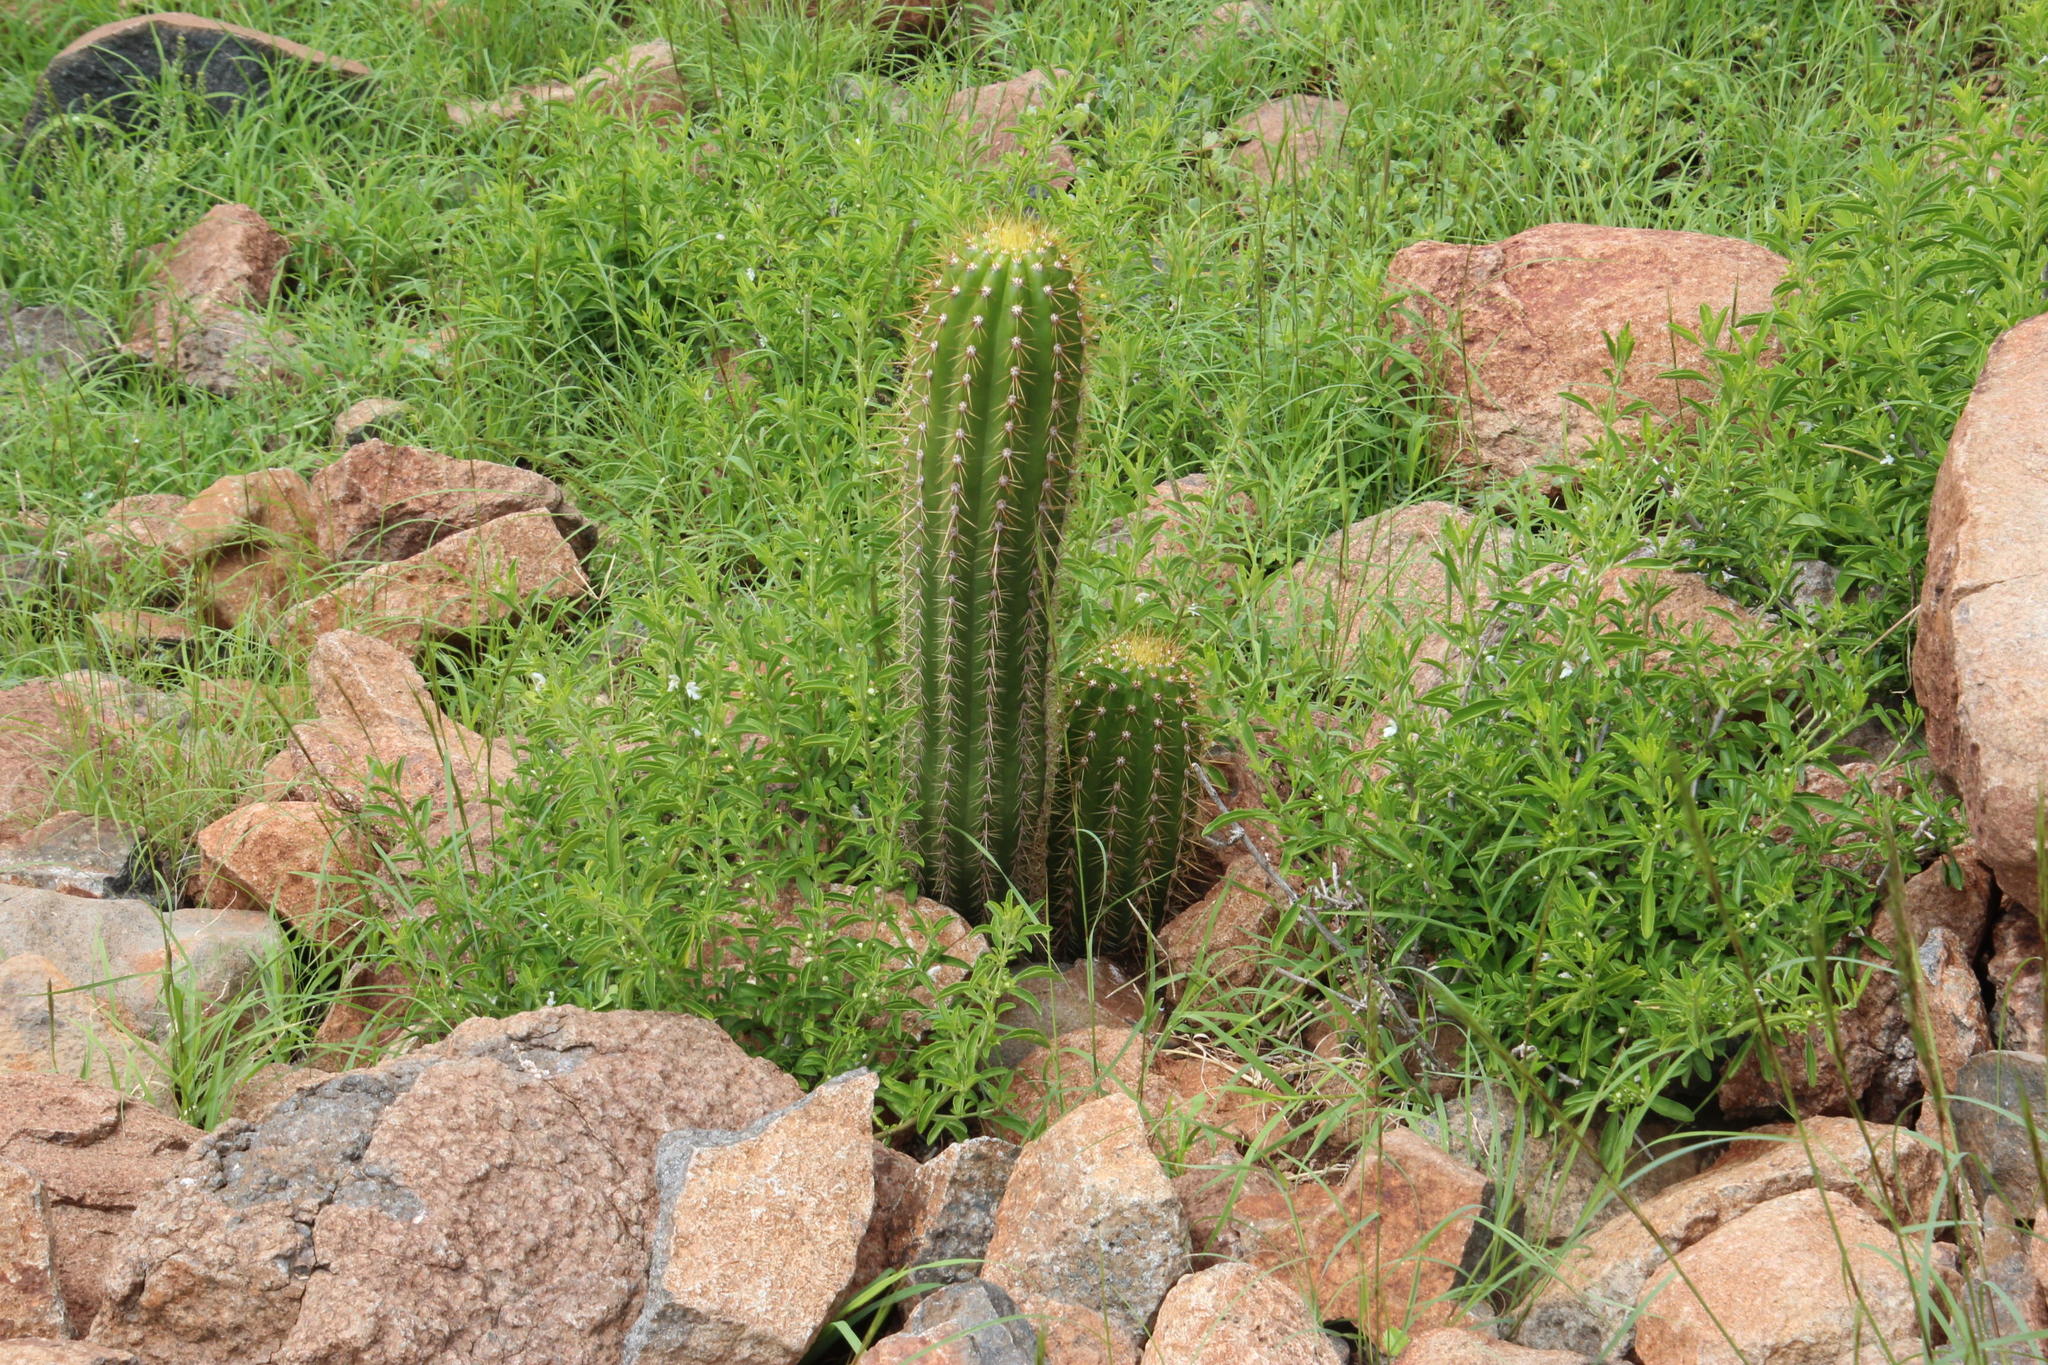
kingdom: Plantae
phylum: Tracheophyta
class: Magnoliopsida
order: Caryophyllales
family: Cactaceae
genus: Soehrensia
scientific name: Soehrensia spachiana
